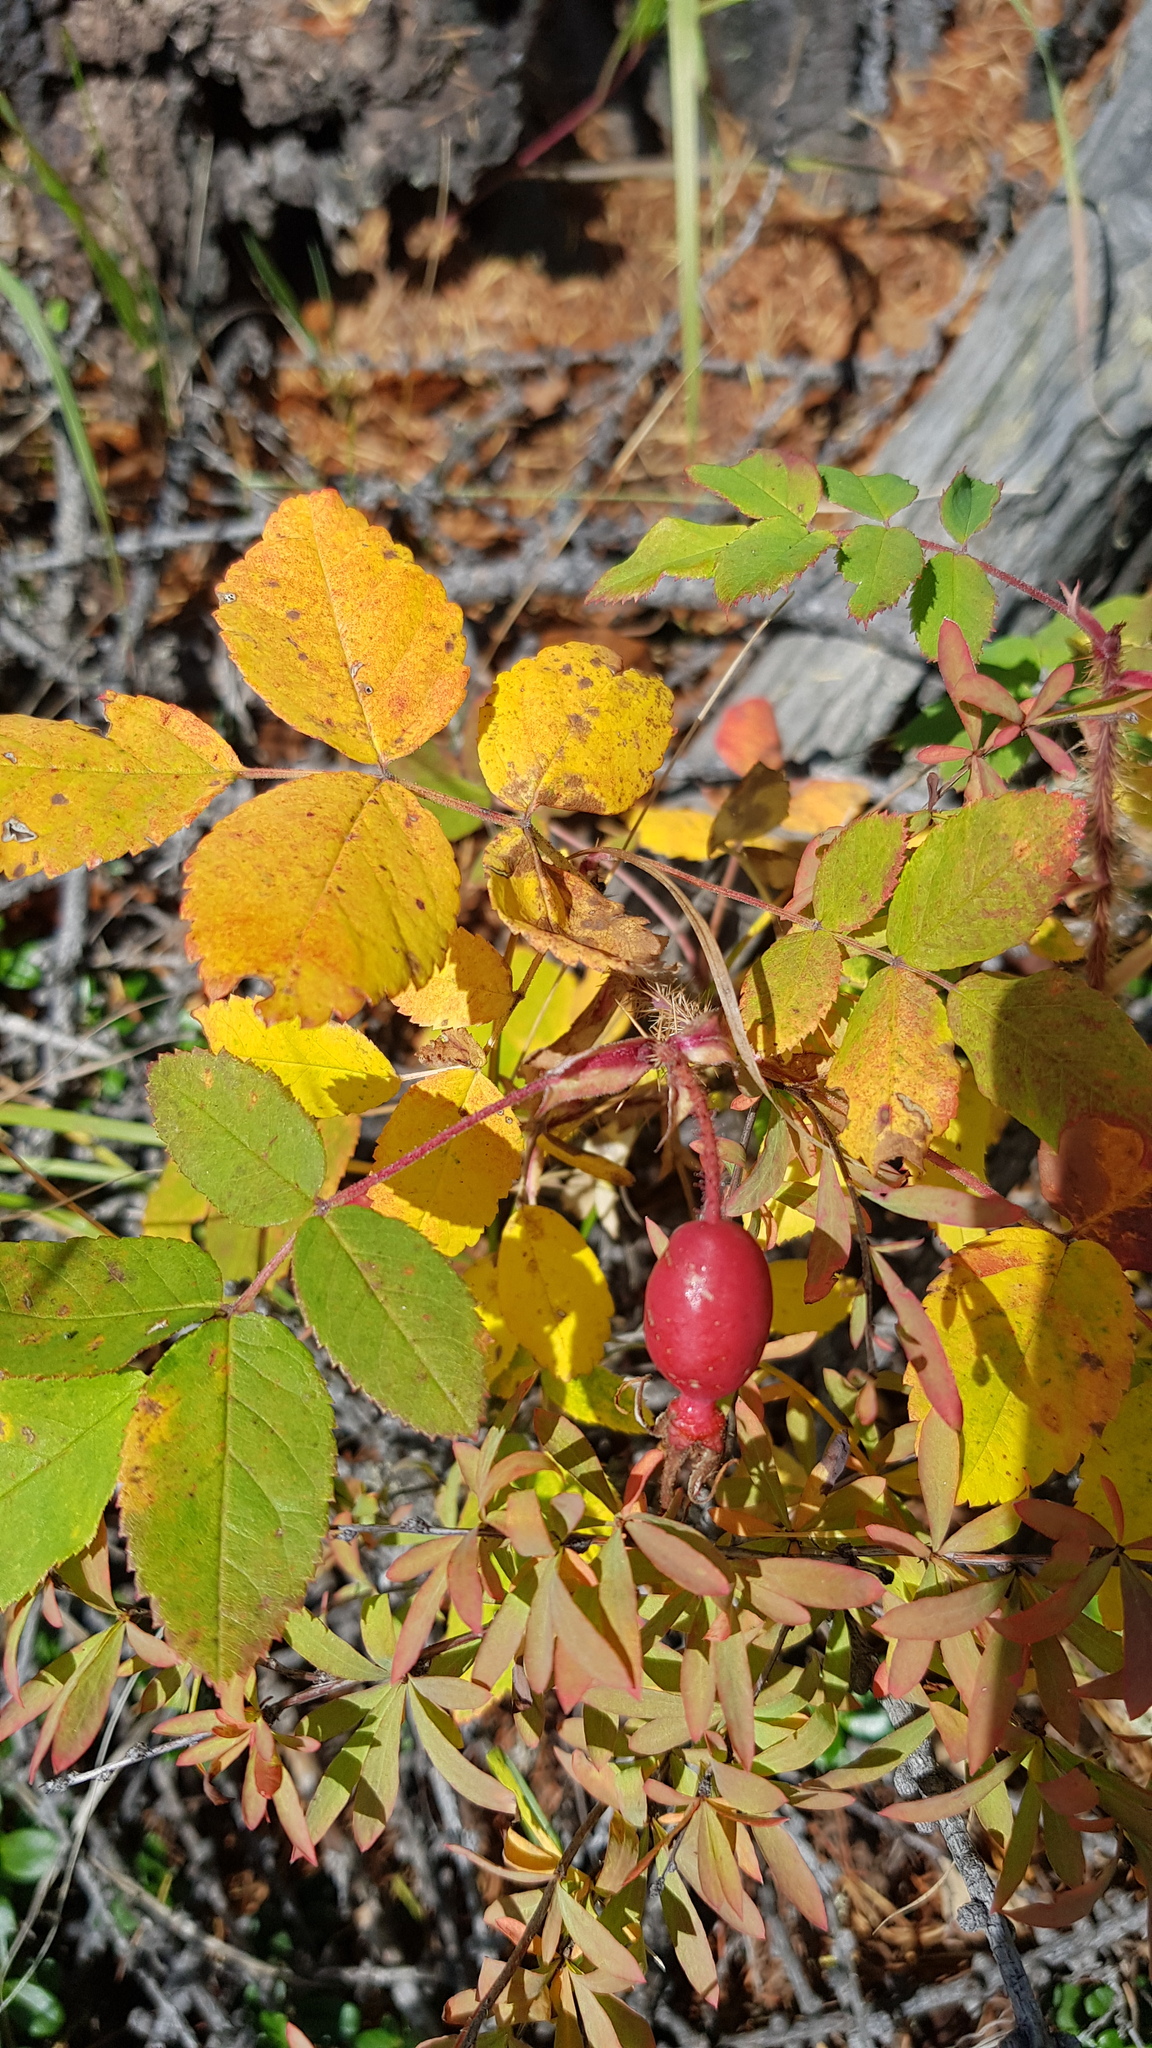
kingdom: Plantae
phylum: Tracheophyta
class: Magnoliopsida
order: Rosales
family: Rosaceae
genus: Rosa
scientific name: Rosa acicularis
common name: Prickly rose
